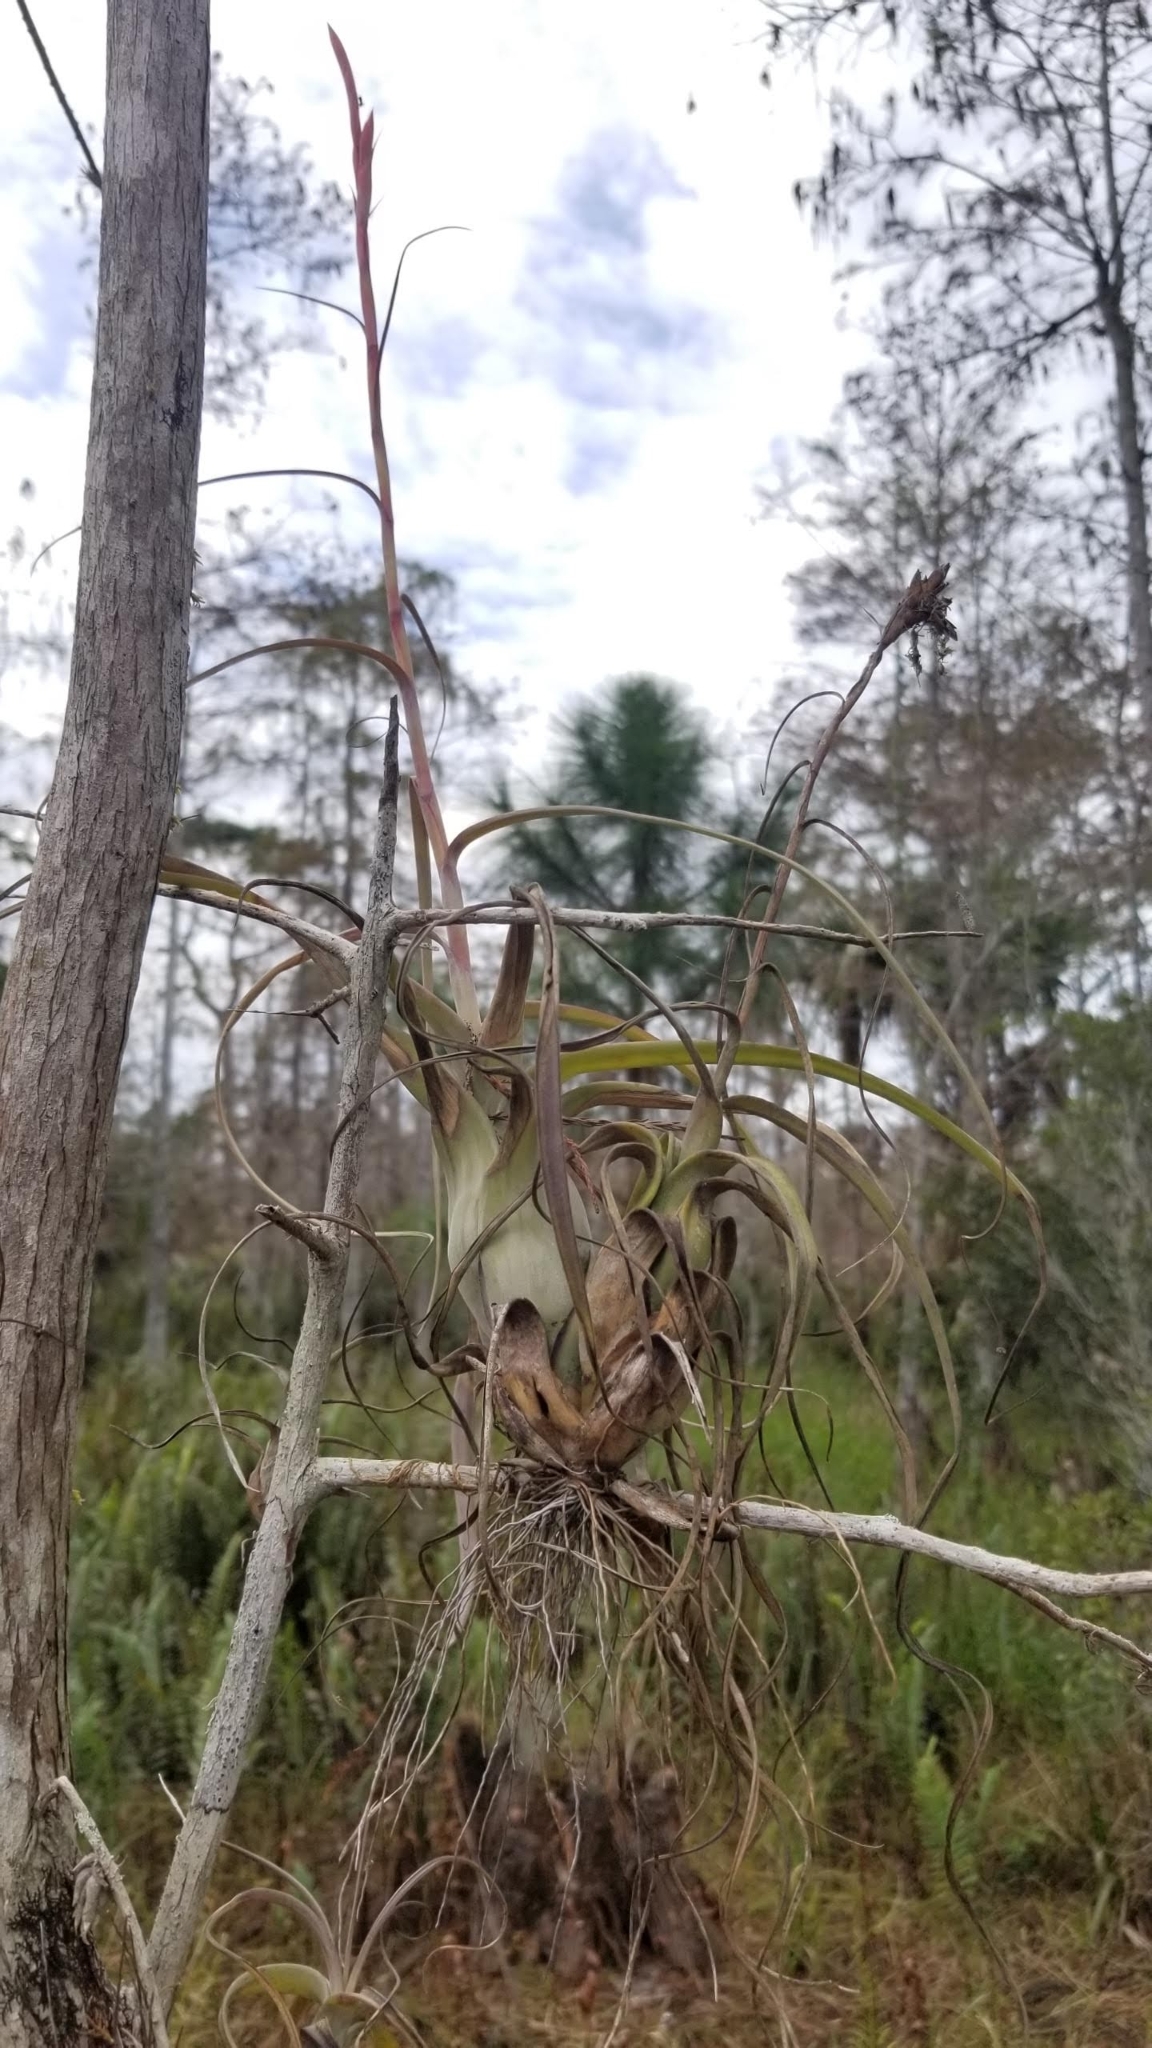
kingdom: Plantae
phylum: Tracheophyta
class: Liliopsida
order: Poales
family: Bromeliaceae
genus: Tillandsia
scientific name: Tillandsia balbisiana
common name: Northern needleleaf
